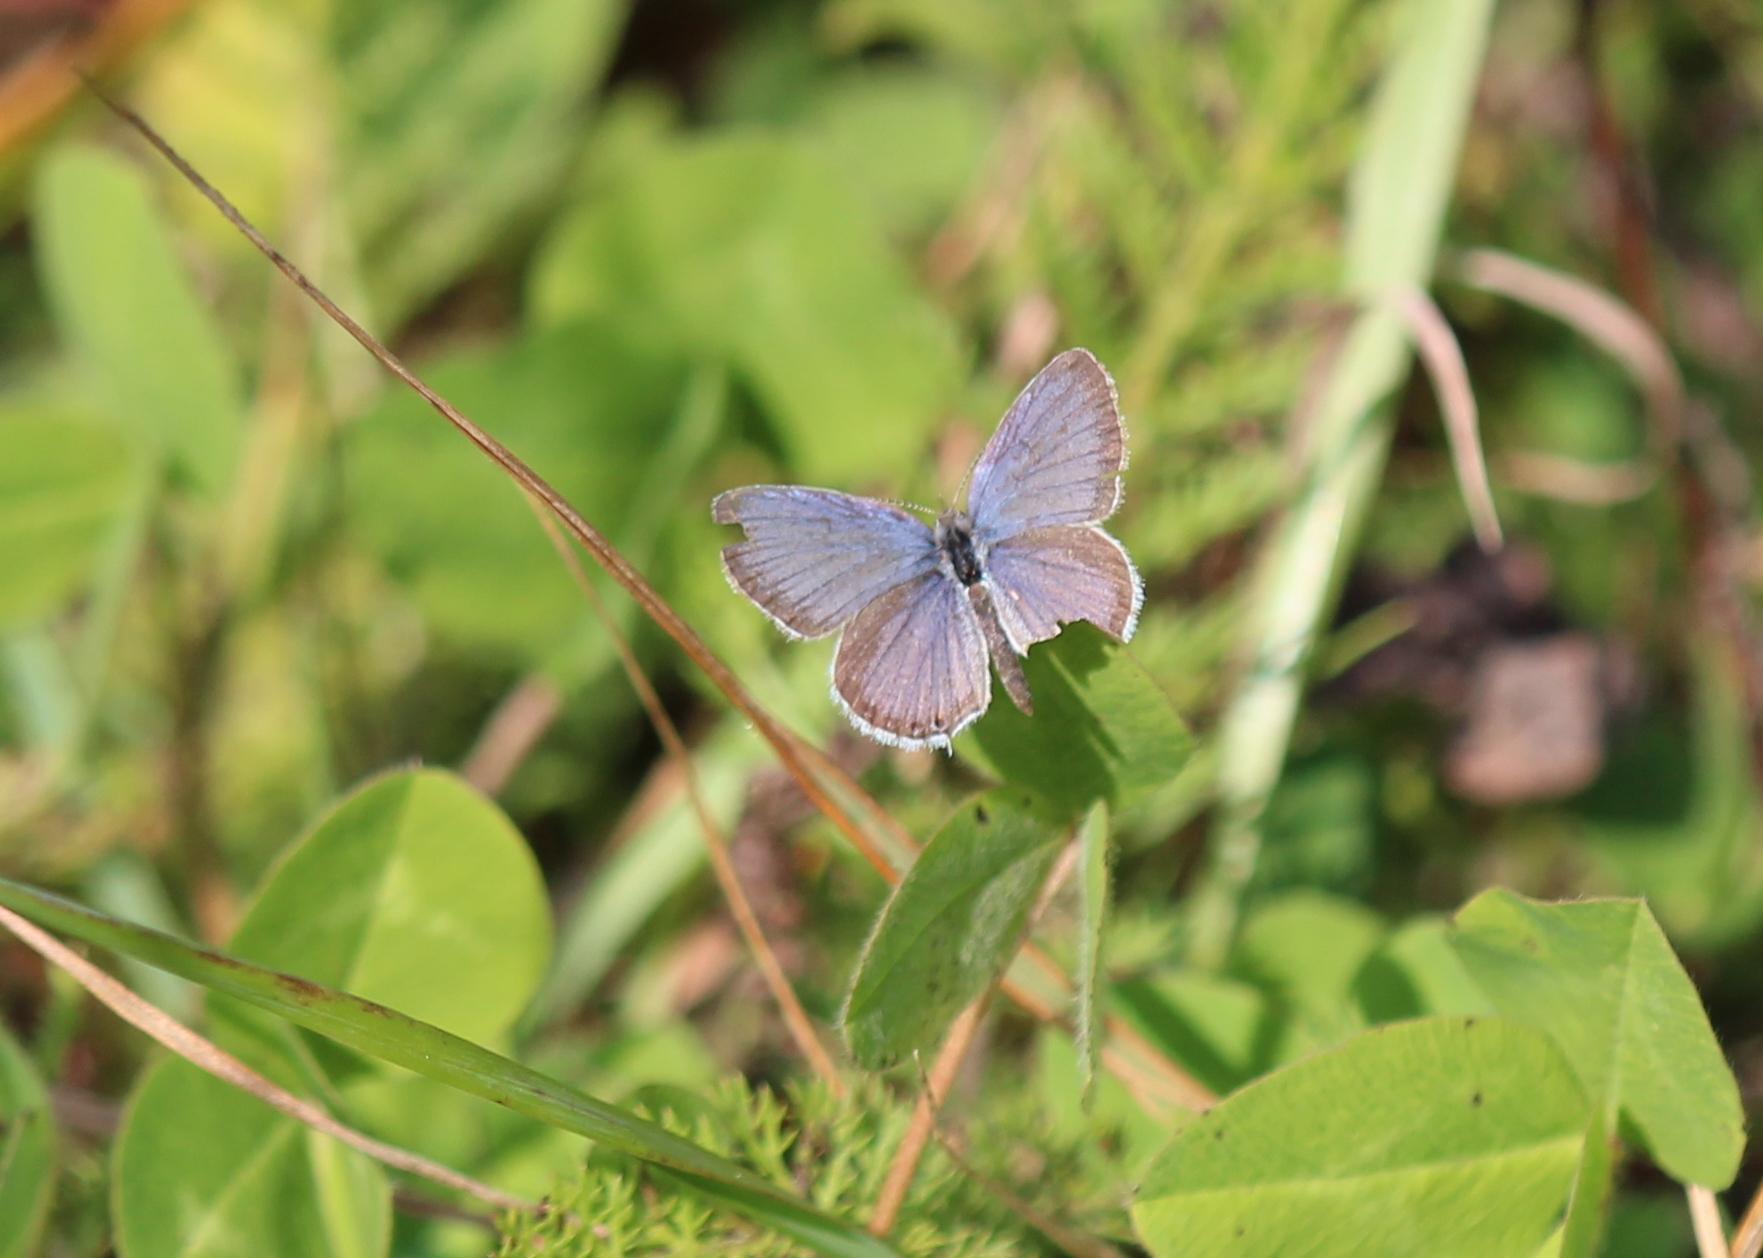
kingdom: Animalia
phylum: Arthropoda
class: Insecta
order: Lepidoptera
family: Lycaenidae
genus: Elkalyce
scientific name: Elkalyce comyntas
